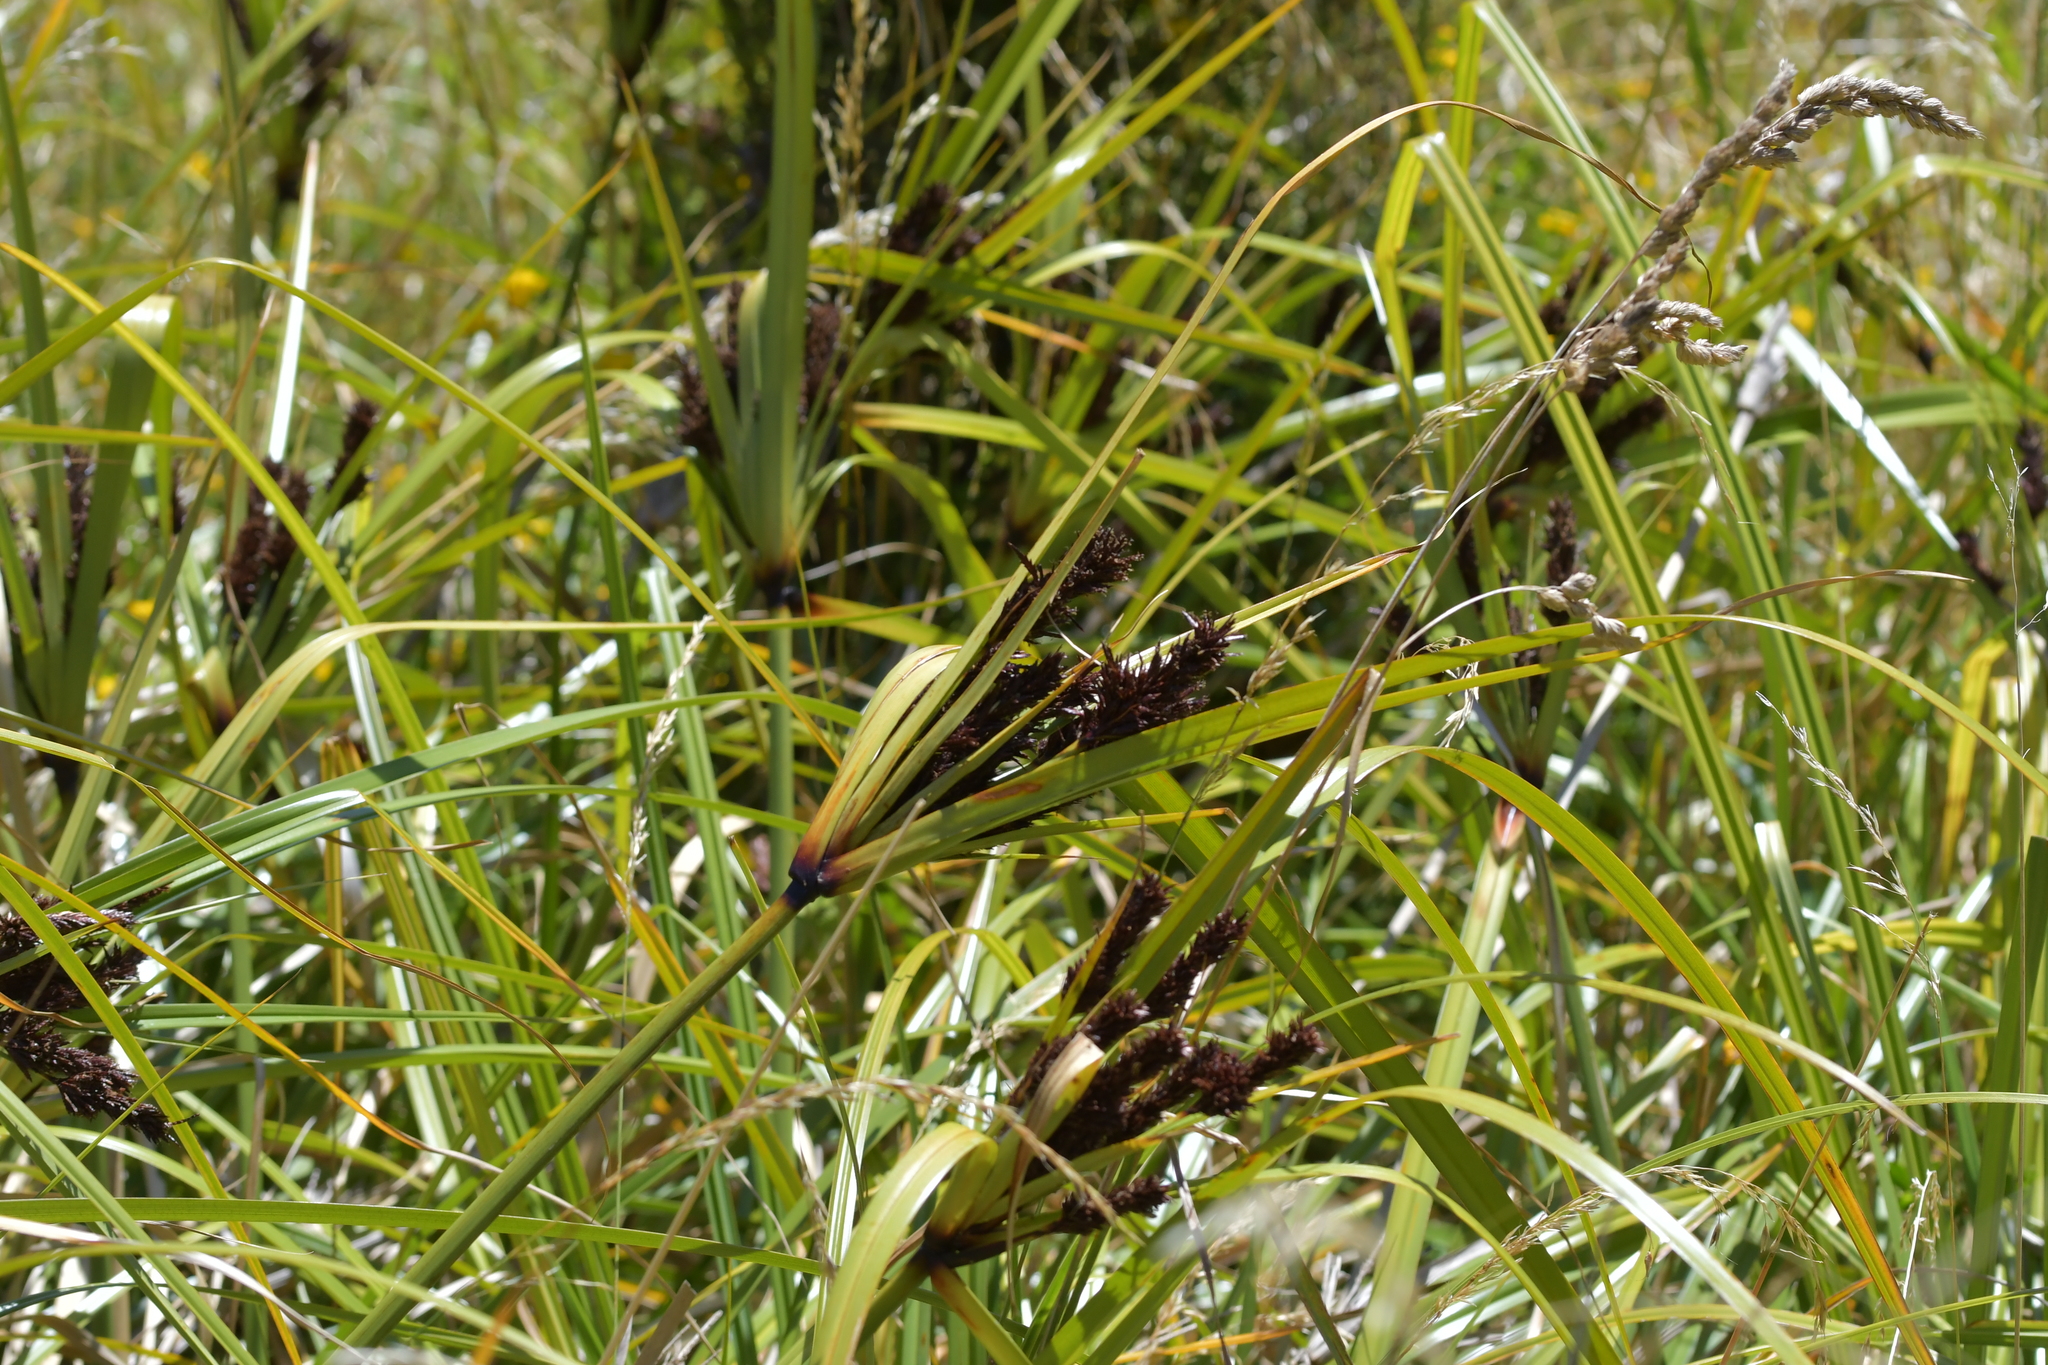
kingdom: Plantae
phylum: Tracheophyta
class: Liliopsida
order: Poales
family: Cyperaceae
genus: Cyperus
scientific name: Cyperus ustulatus
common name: Giant umbrella-sedge
